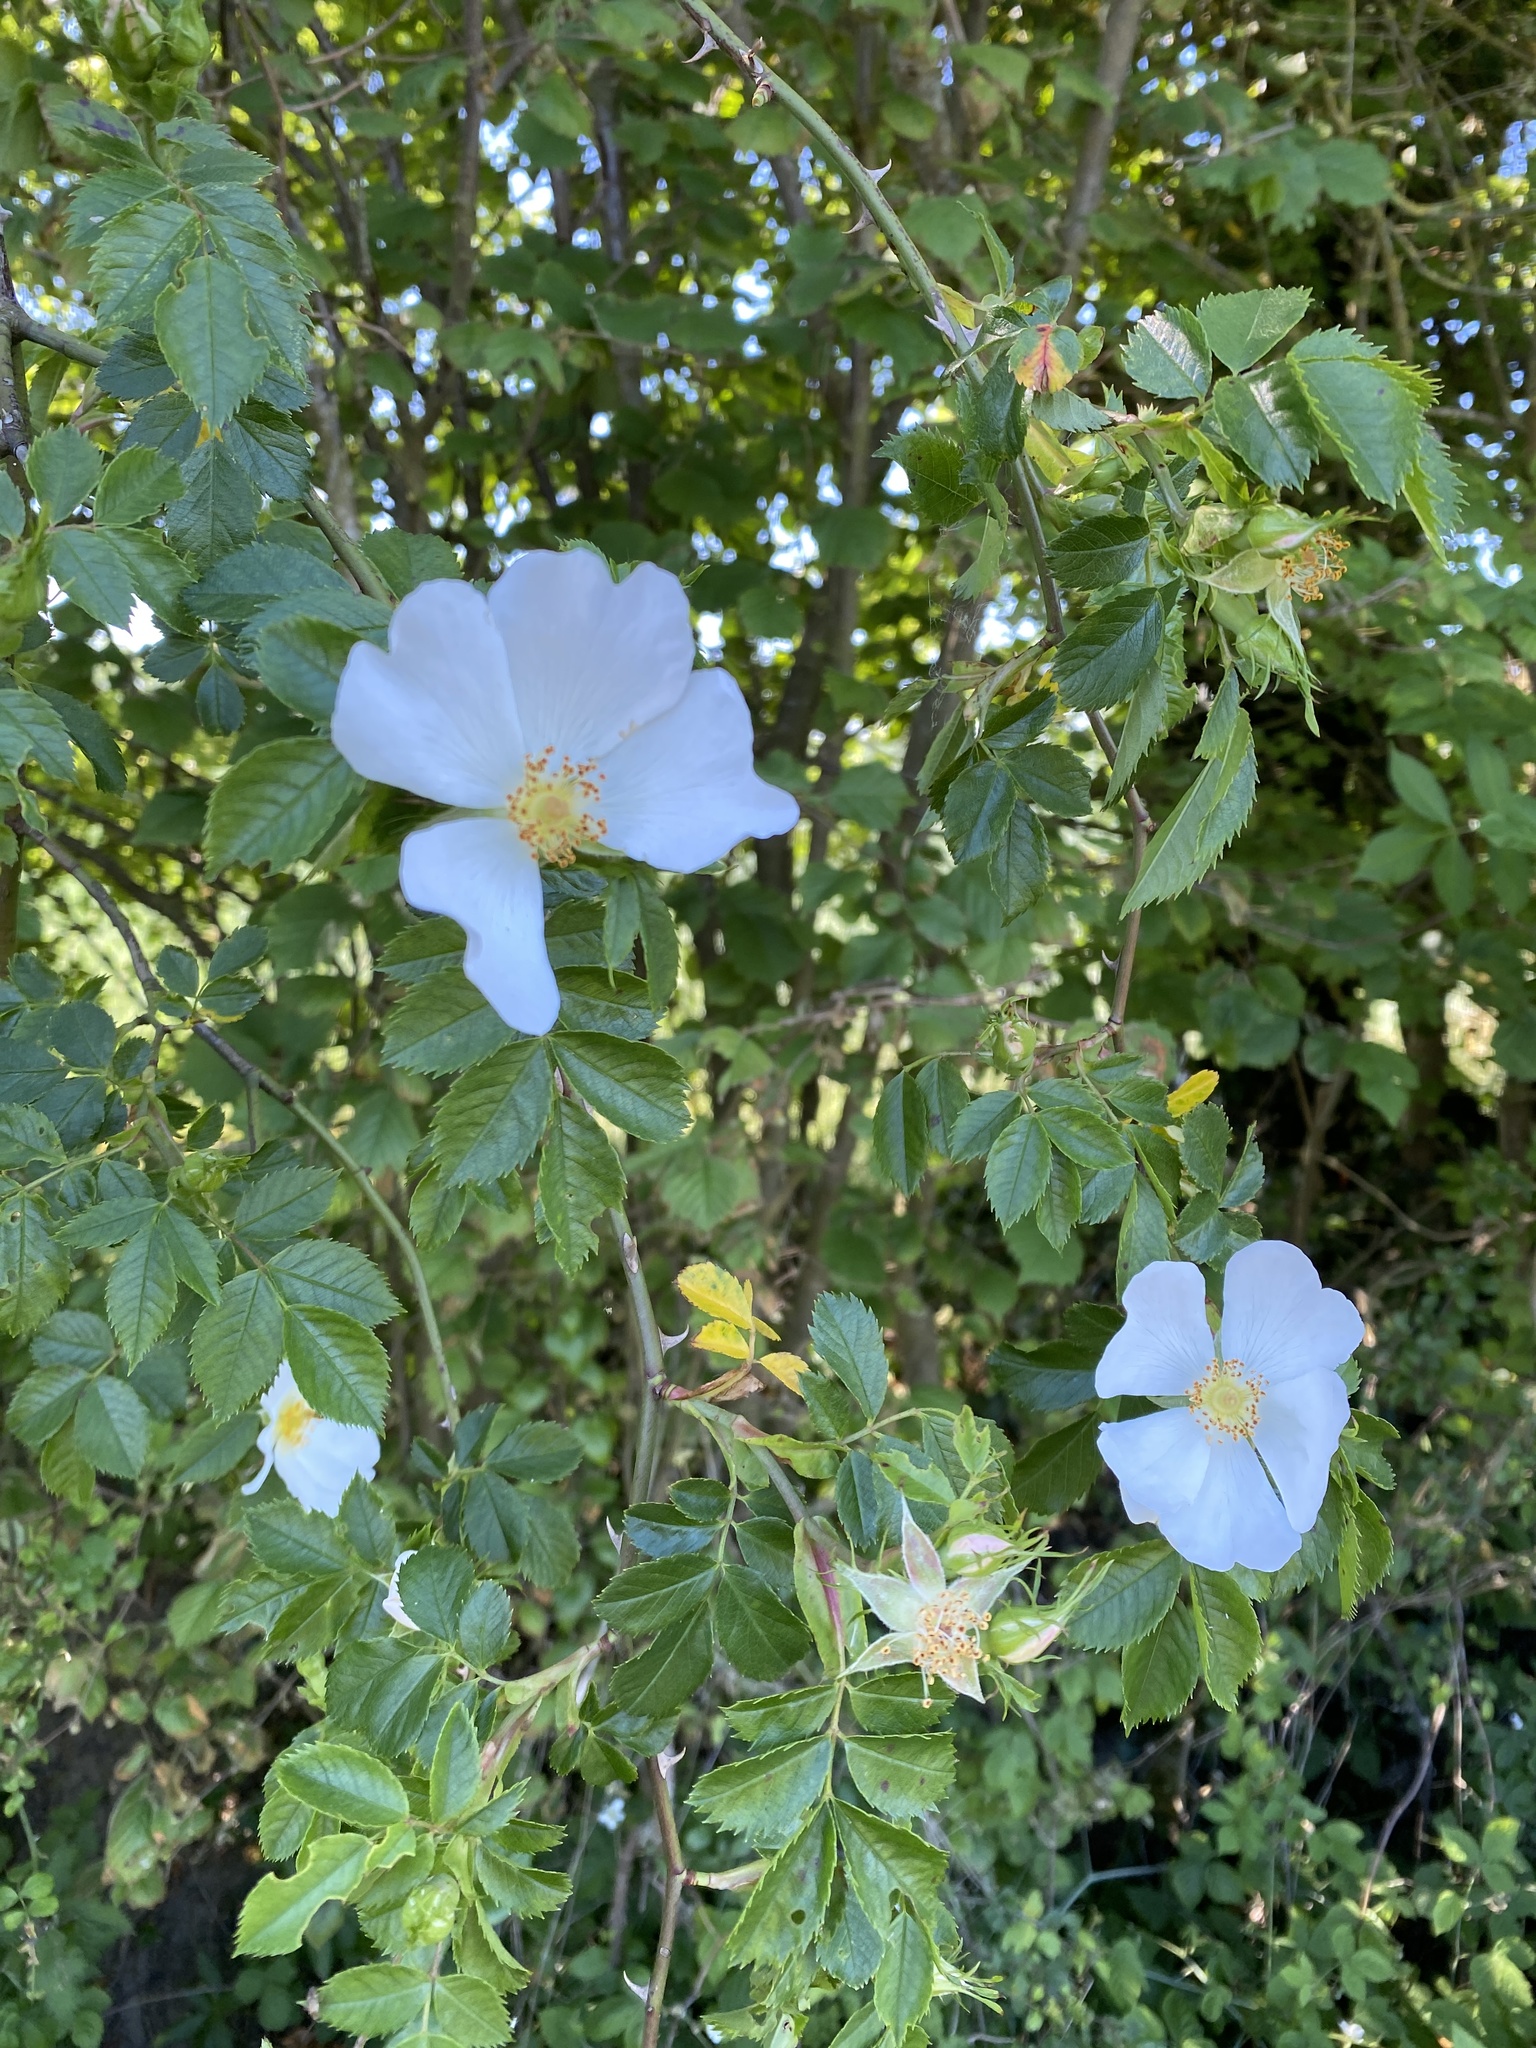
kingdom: Plantae
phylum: Tracheophyta
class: Magnoliopsida
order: Rosales
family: Rosaceae
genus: Rosa
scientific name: Rosa canina
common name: Dog rose
